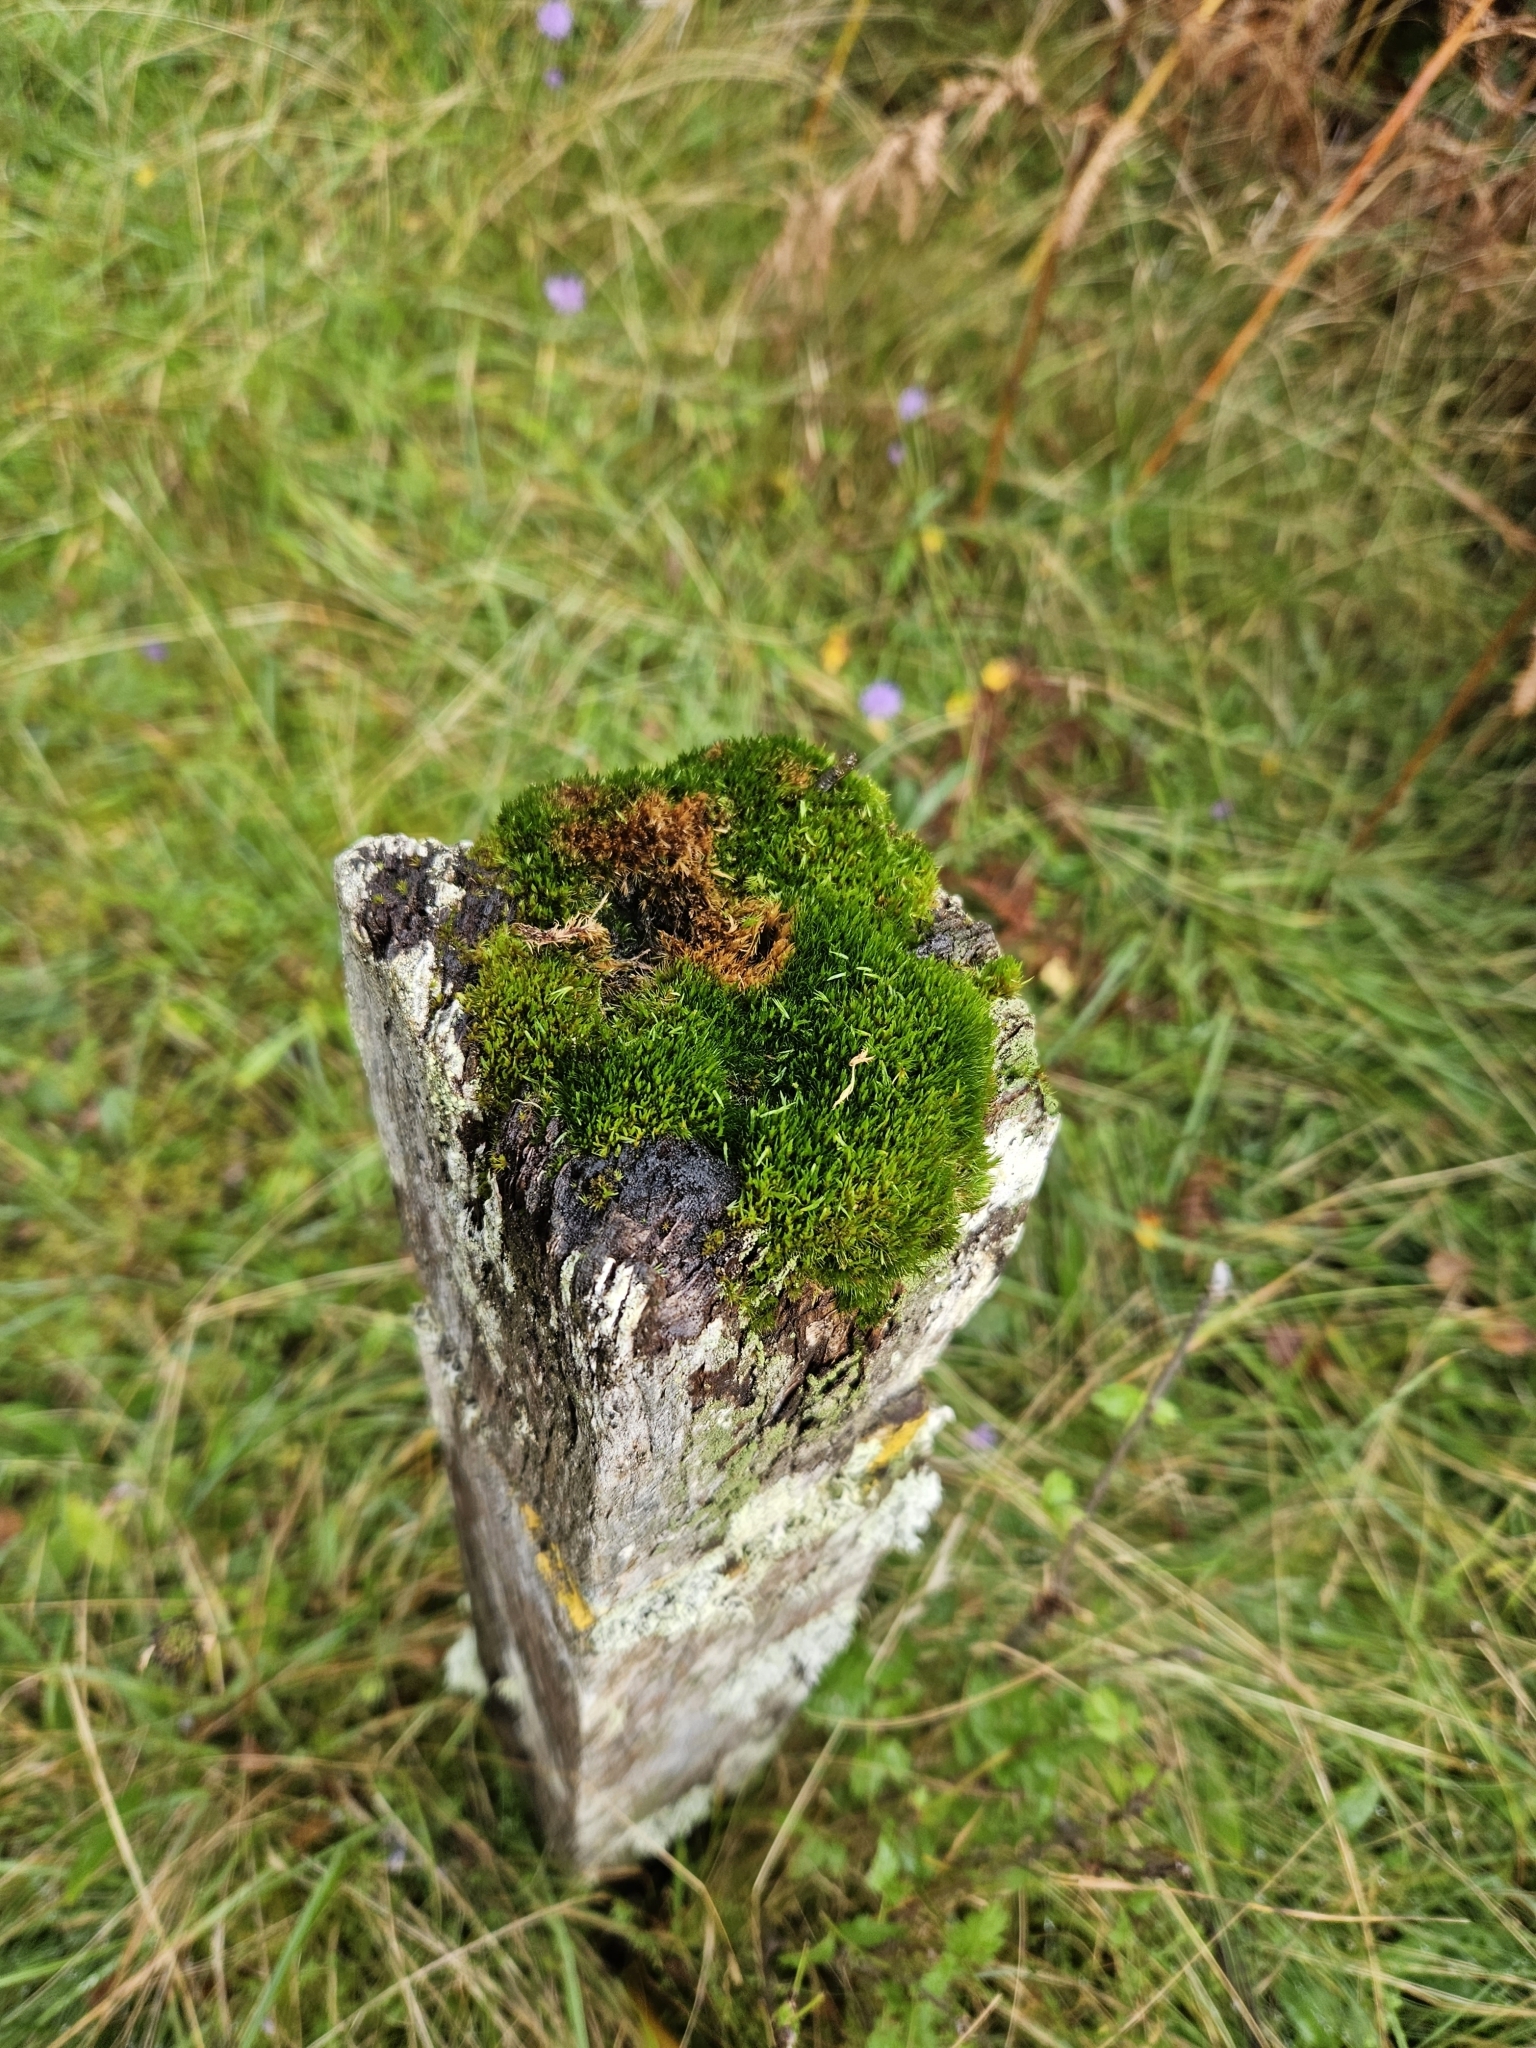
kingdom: Plantae
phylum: Bryophyta
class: Bryopsida
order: Dicranales
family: Leucobryaceae
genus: Campylopus
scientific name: Campylopus flexuosus
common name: Rusty swan-neck moss
